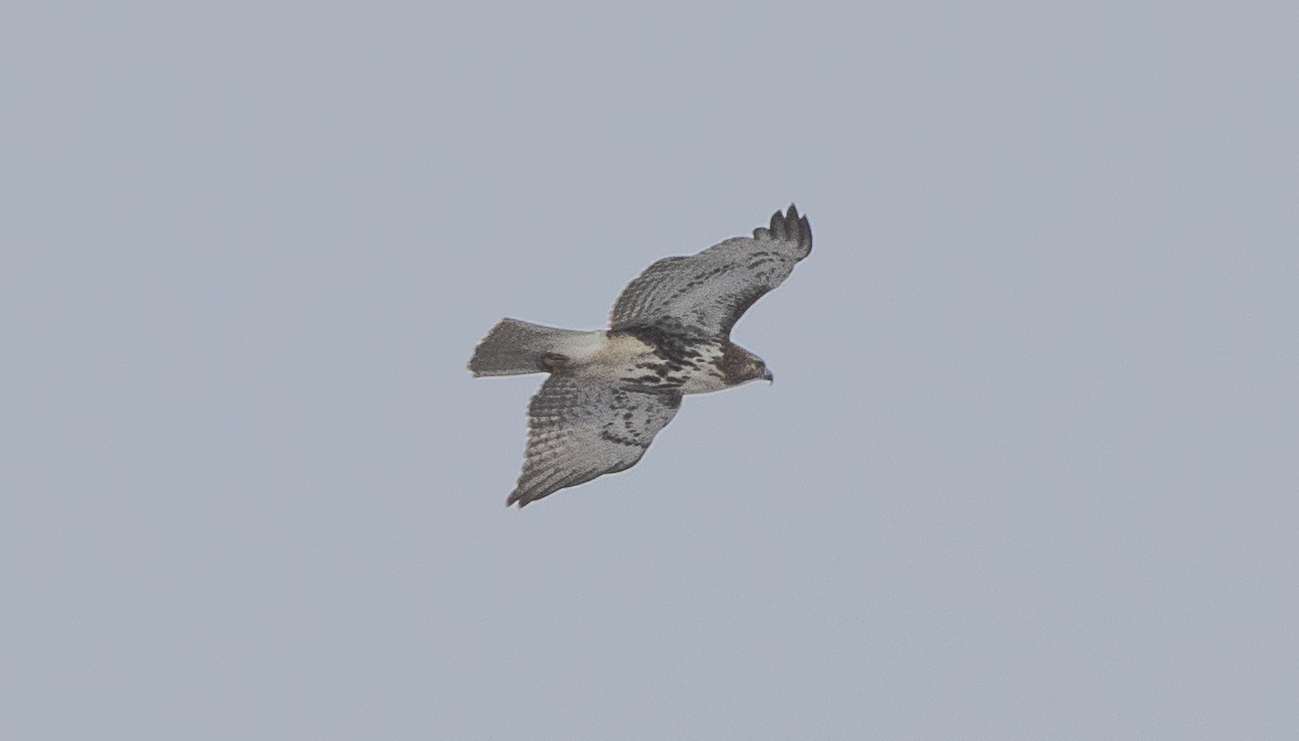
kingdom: Animalia
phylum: Chordata
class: Aves
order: Accipitriformes
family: Accipitridae
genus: Buteo
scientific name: Buteo jamaicensis
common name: Red-tailed hawk
